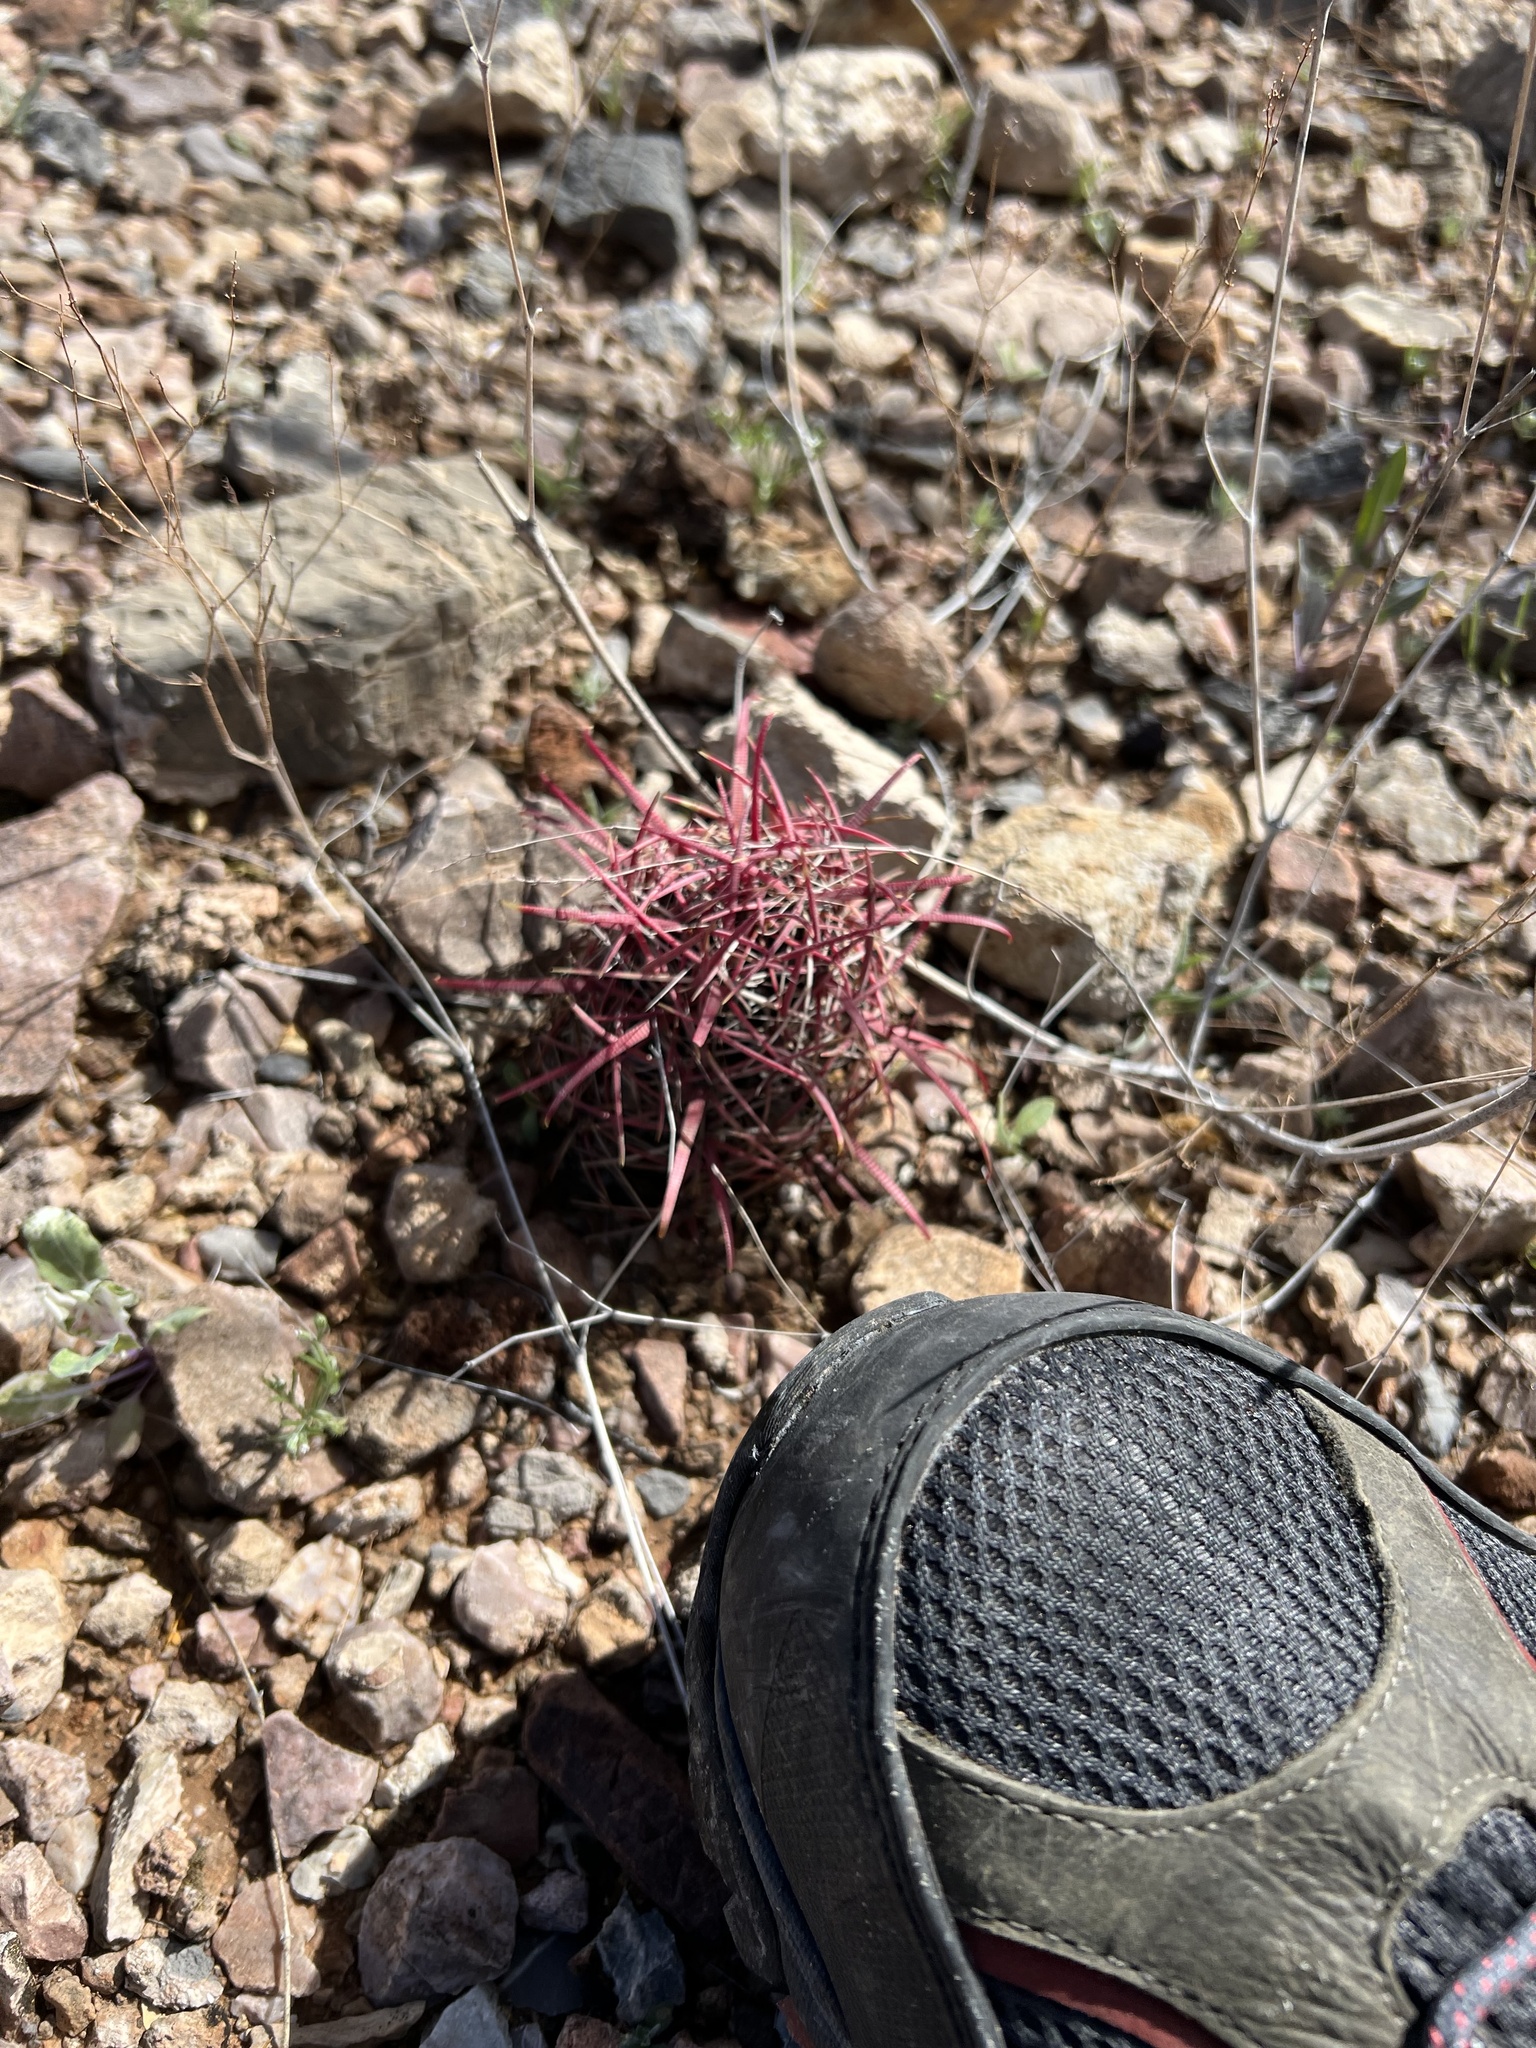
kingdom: Plantae
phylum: Tracheophyta
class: Magnoliopsida
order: Caryophyllales
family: Cactaceae
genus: Ferocactus
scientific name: Ferocactus cylindraceus
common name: California barrel cactus
